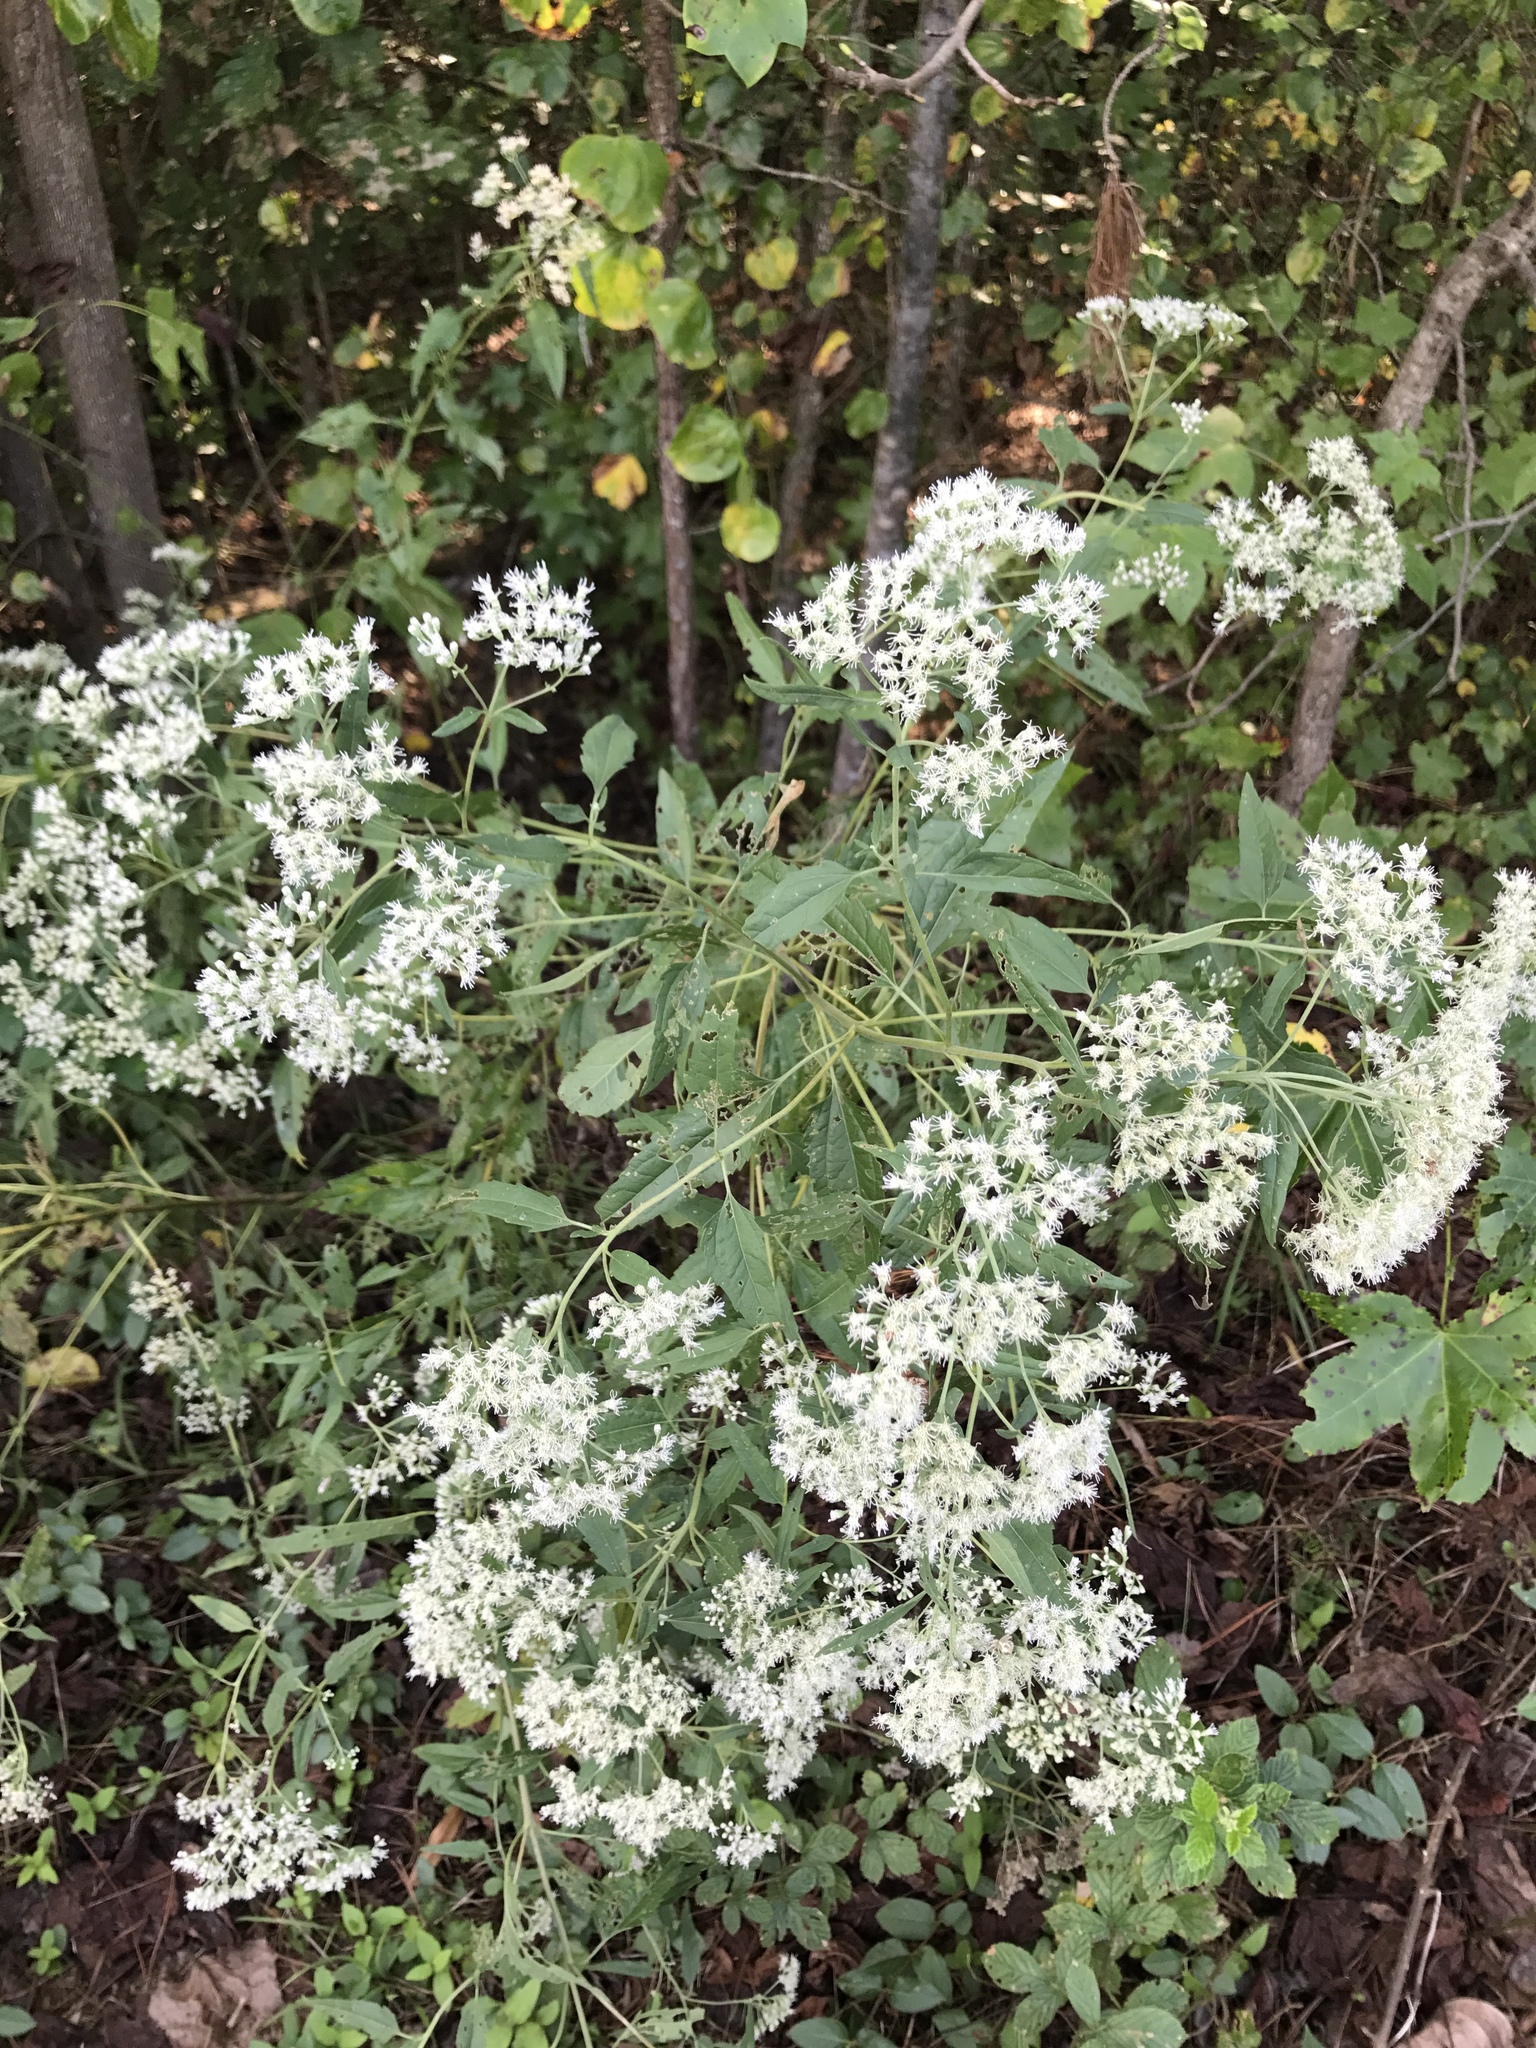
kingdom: Plantae
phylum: Tracheophyta
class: Magnoliopsida
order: Asterales
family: Asteraceae
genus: Eupatorium
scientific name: Eupatorium serotinum
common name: Late boneset
